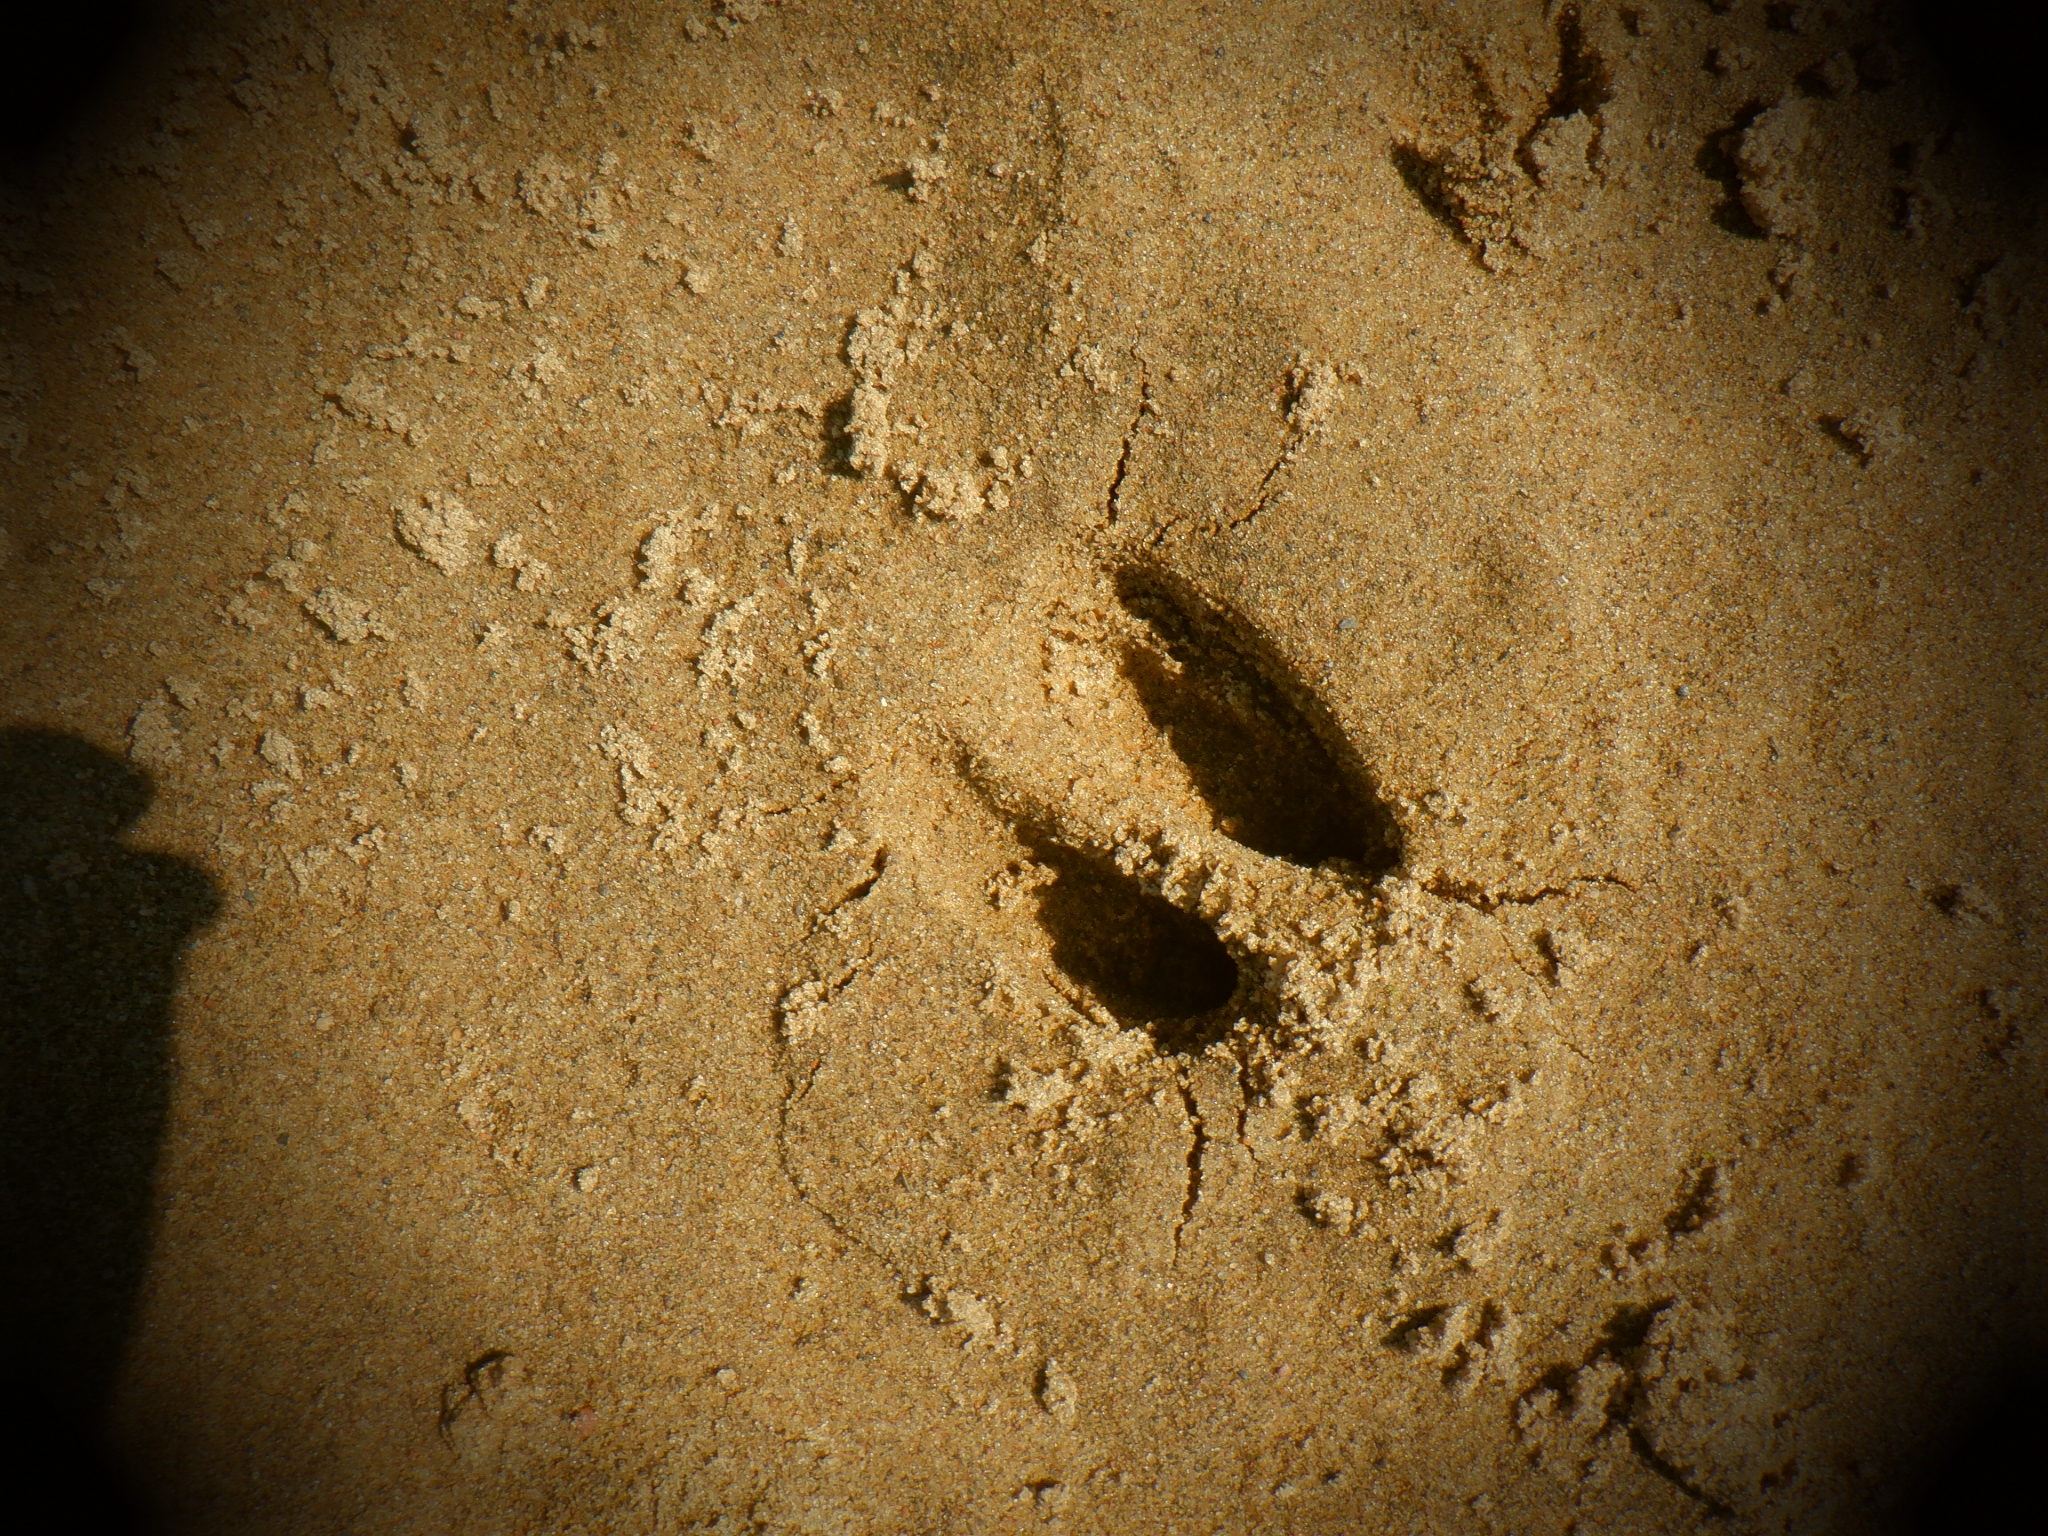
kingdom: Animalia
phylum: Chordata
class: Mammalia
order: Artiodactyla
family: Cervidae
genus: Odocoileus
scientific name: Odocoileus virginianus
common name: White-tailed deer
